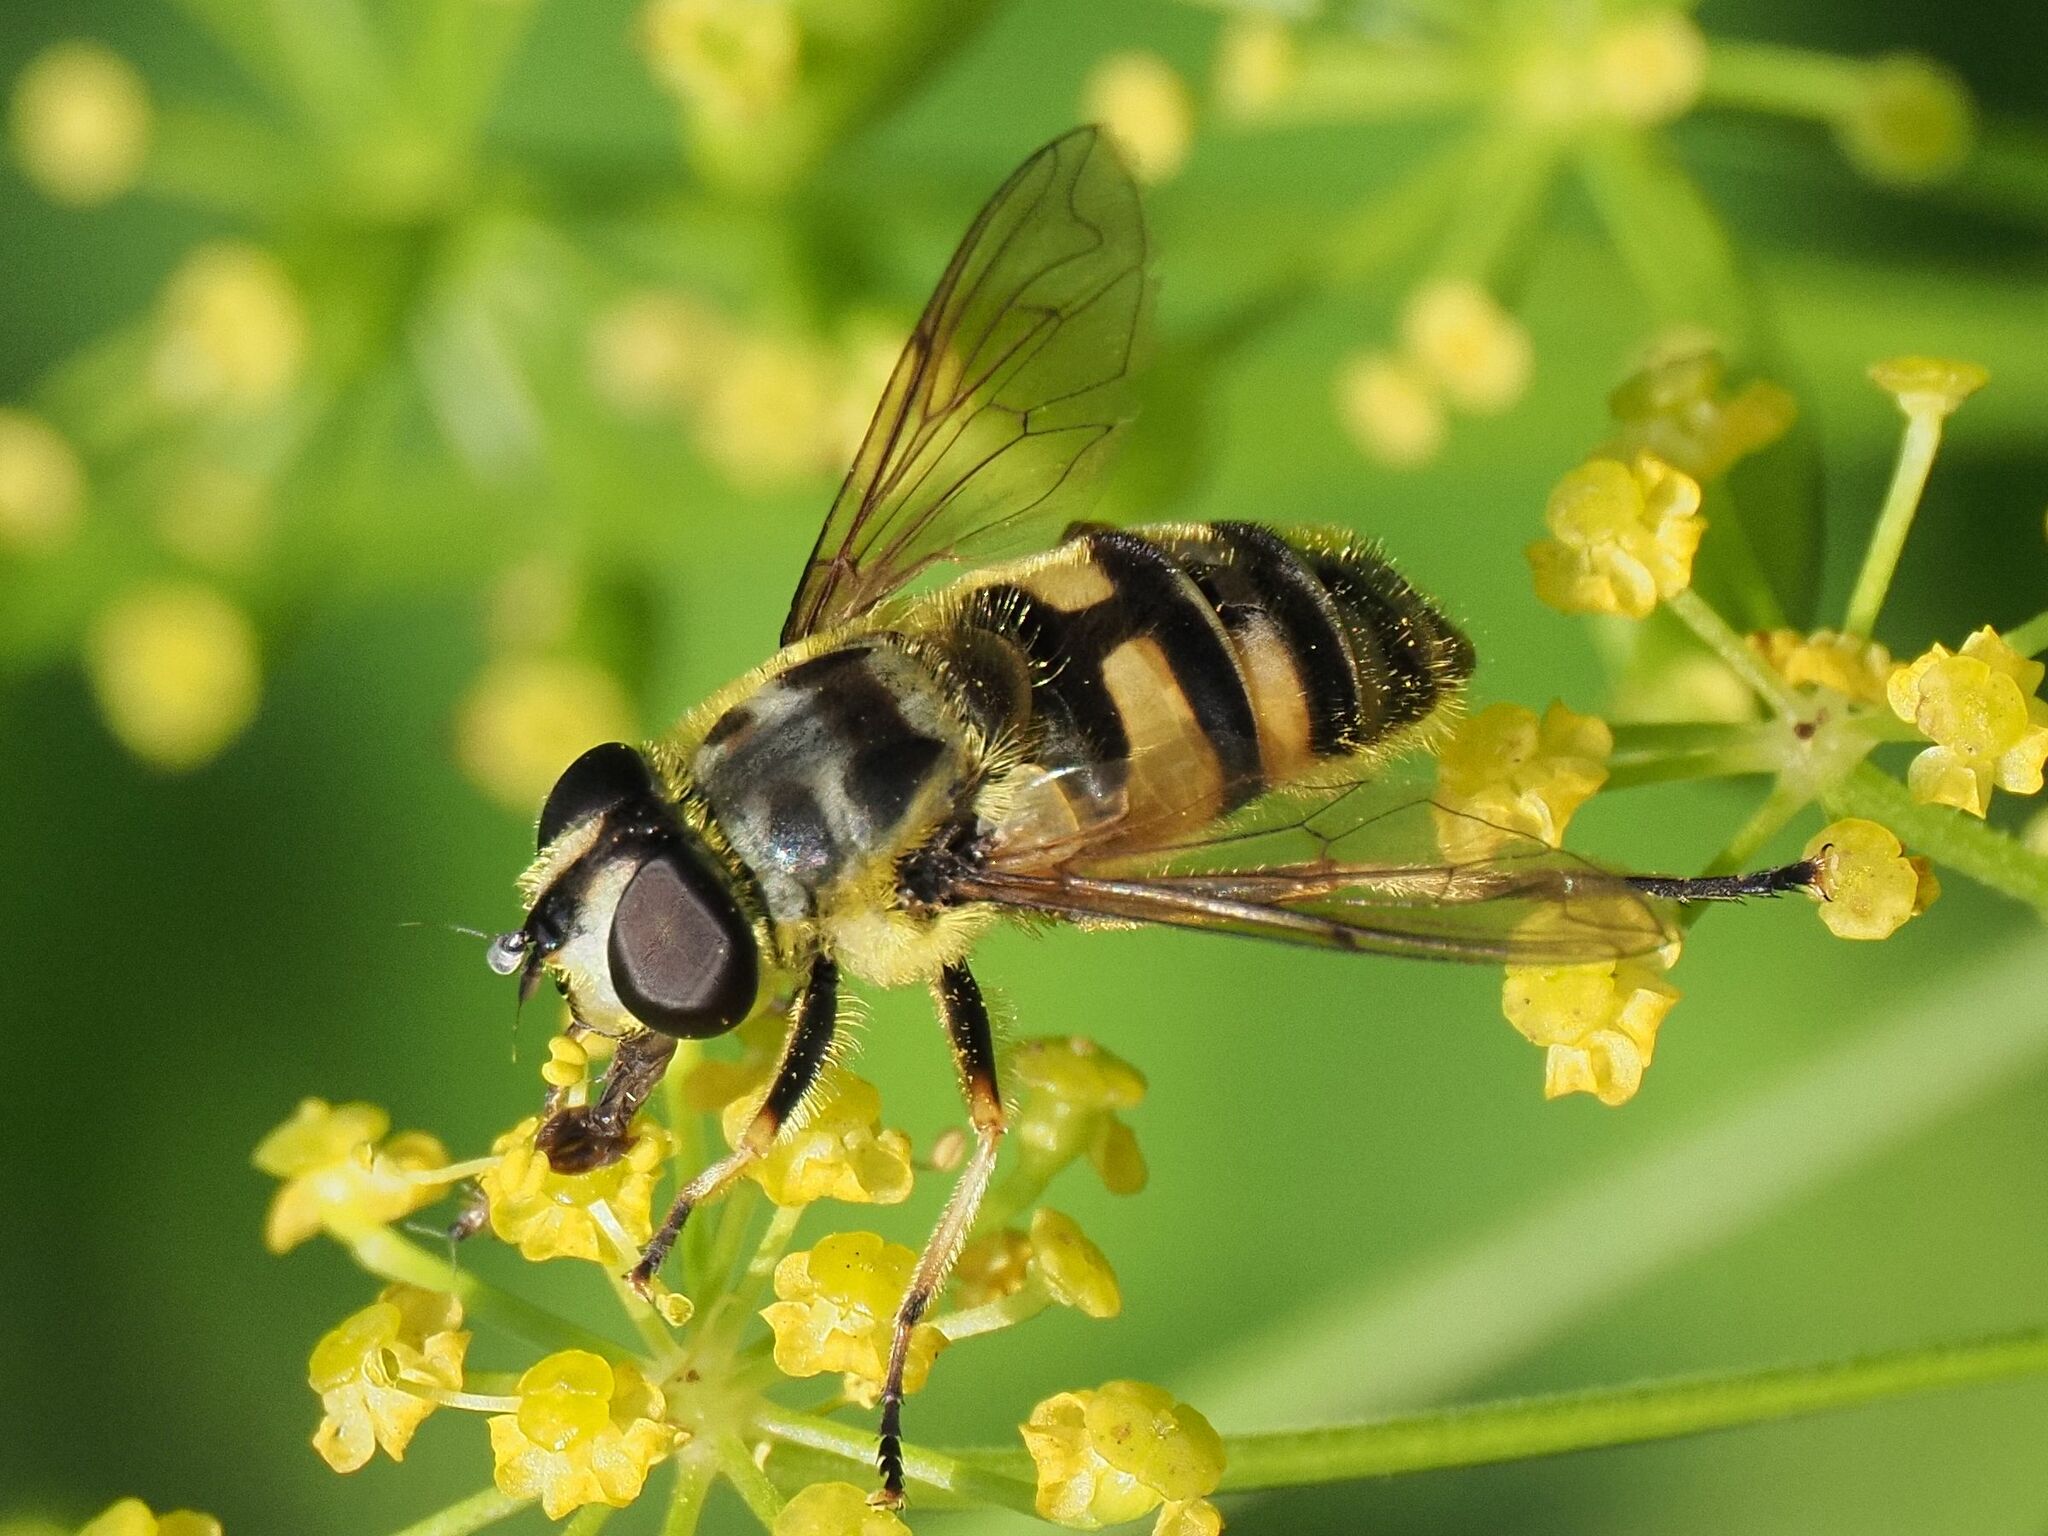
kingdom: Animalia
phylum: Arthropoda
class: Insecta
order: Diptera
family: Syrphidae
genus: Myathropa
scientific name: Myathropa florea
